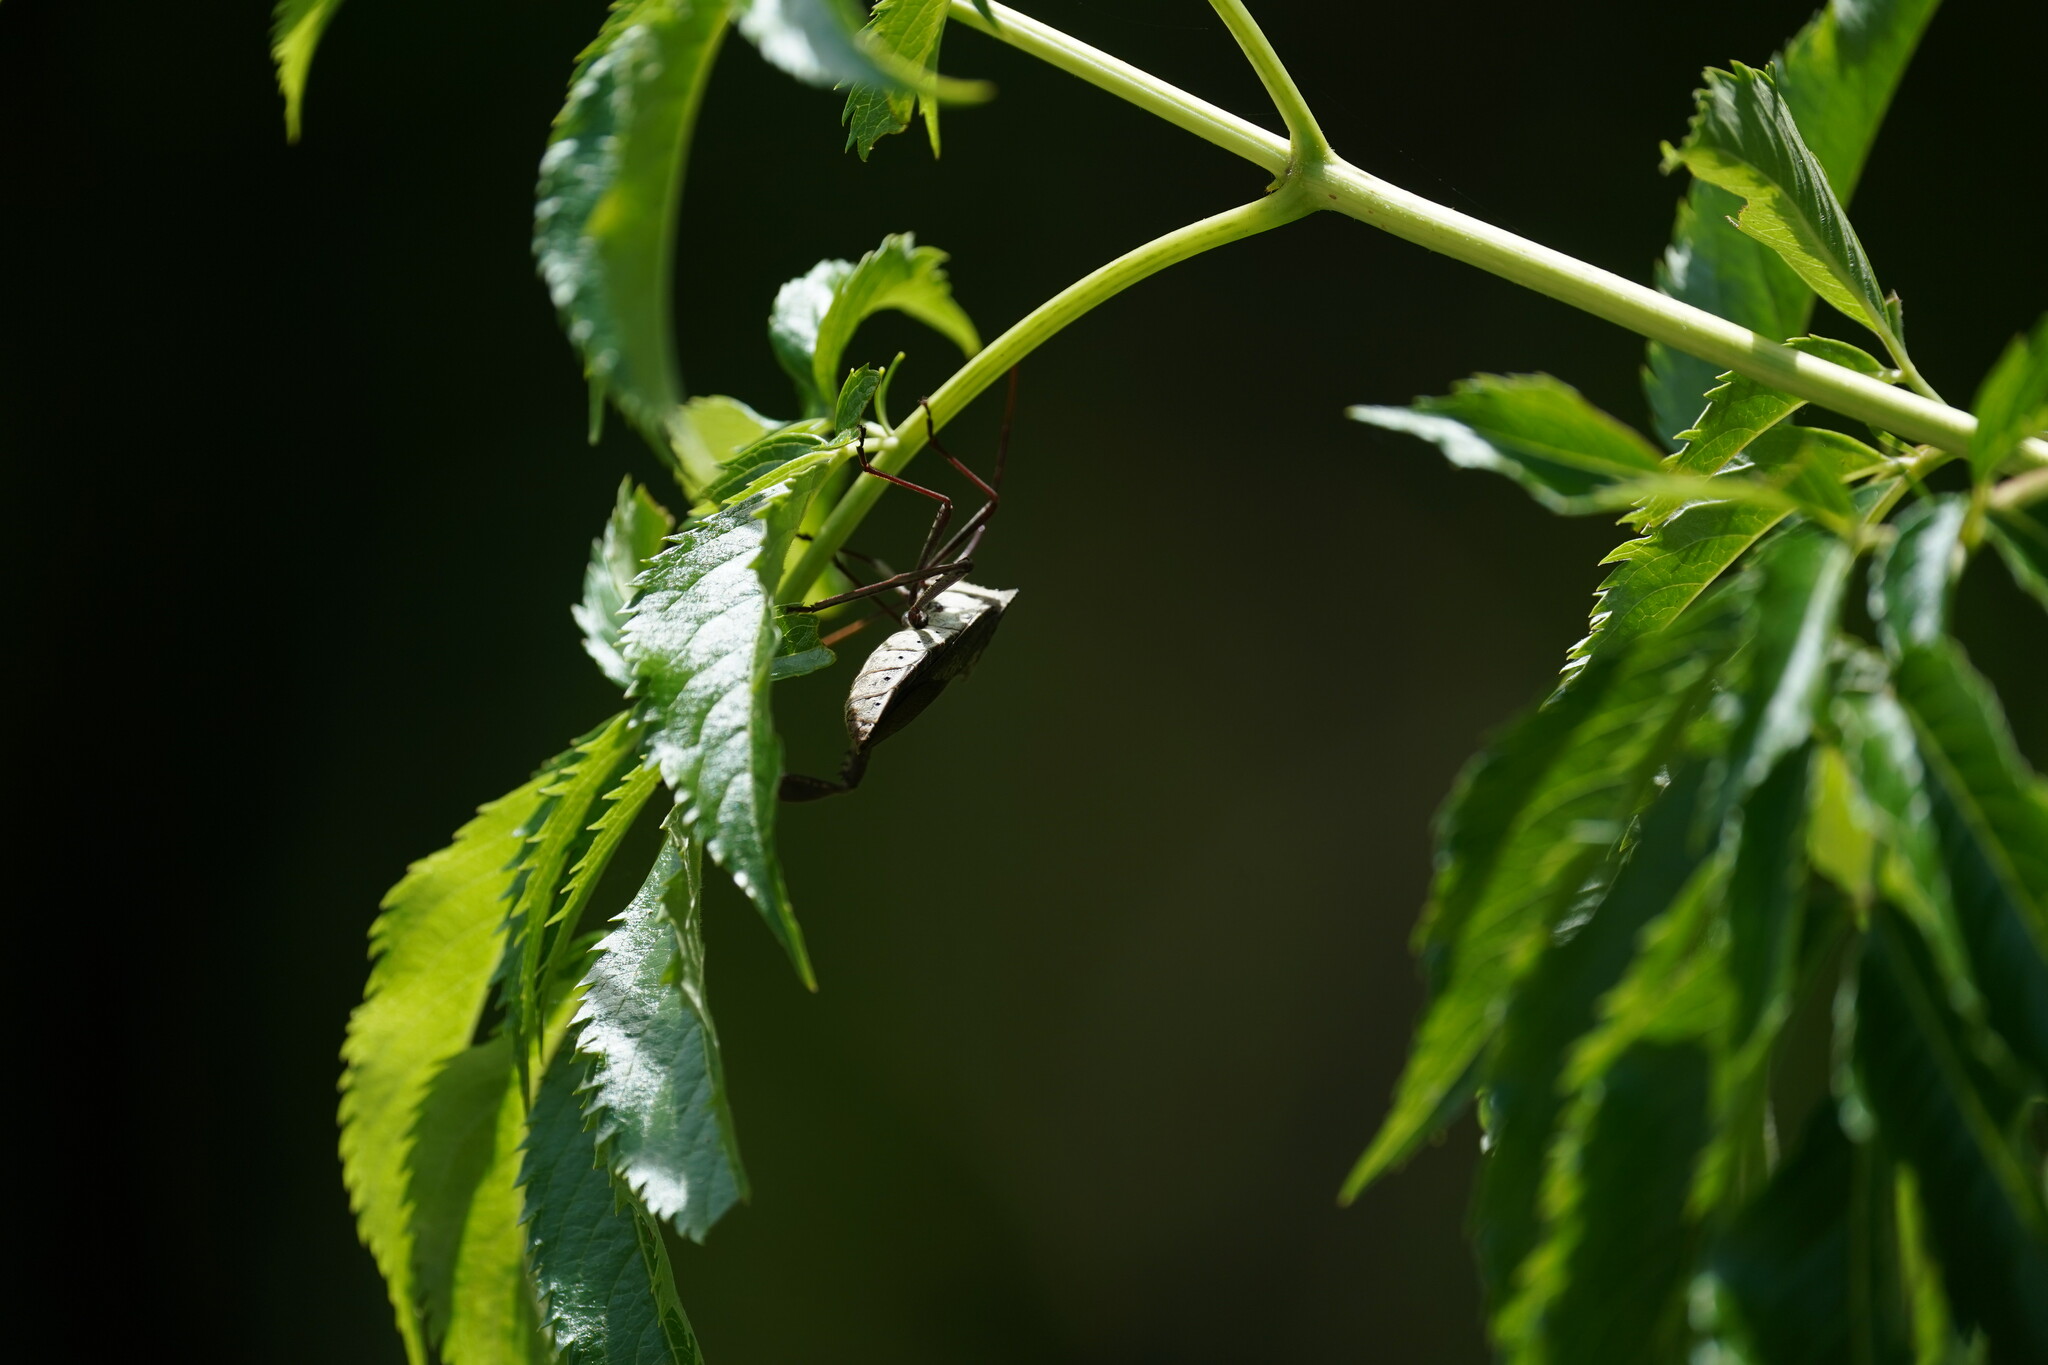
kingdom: Animalia
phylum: Arthropoda
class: Insecta
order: Hemiptera
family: Coreidae
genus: Acanthocephala
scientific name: Acanthocephala declivis
